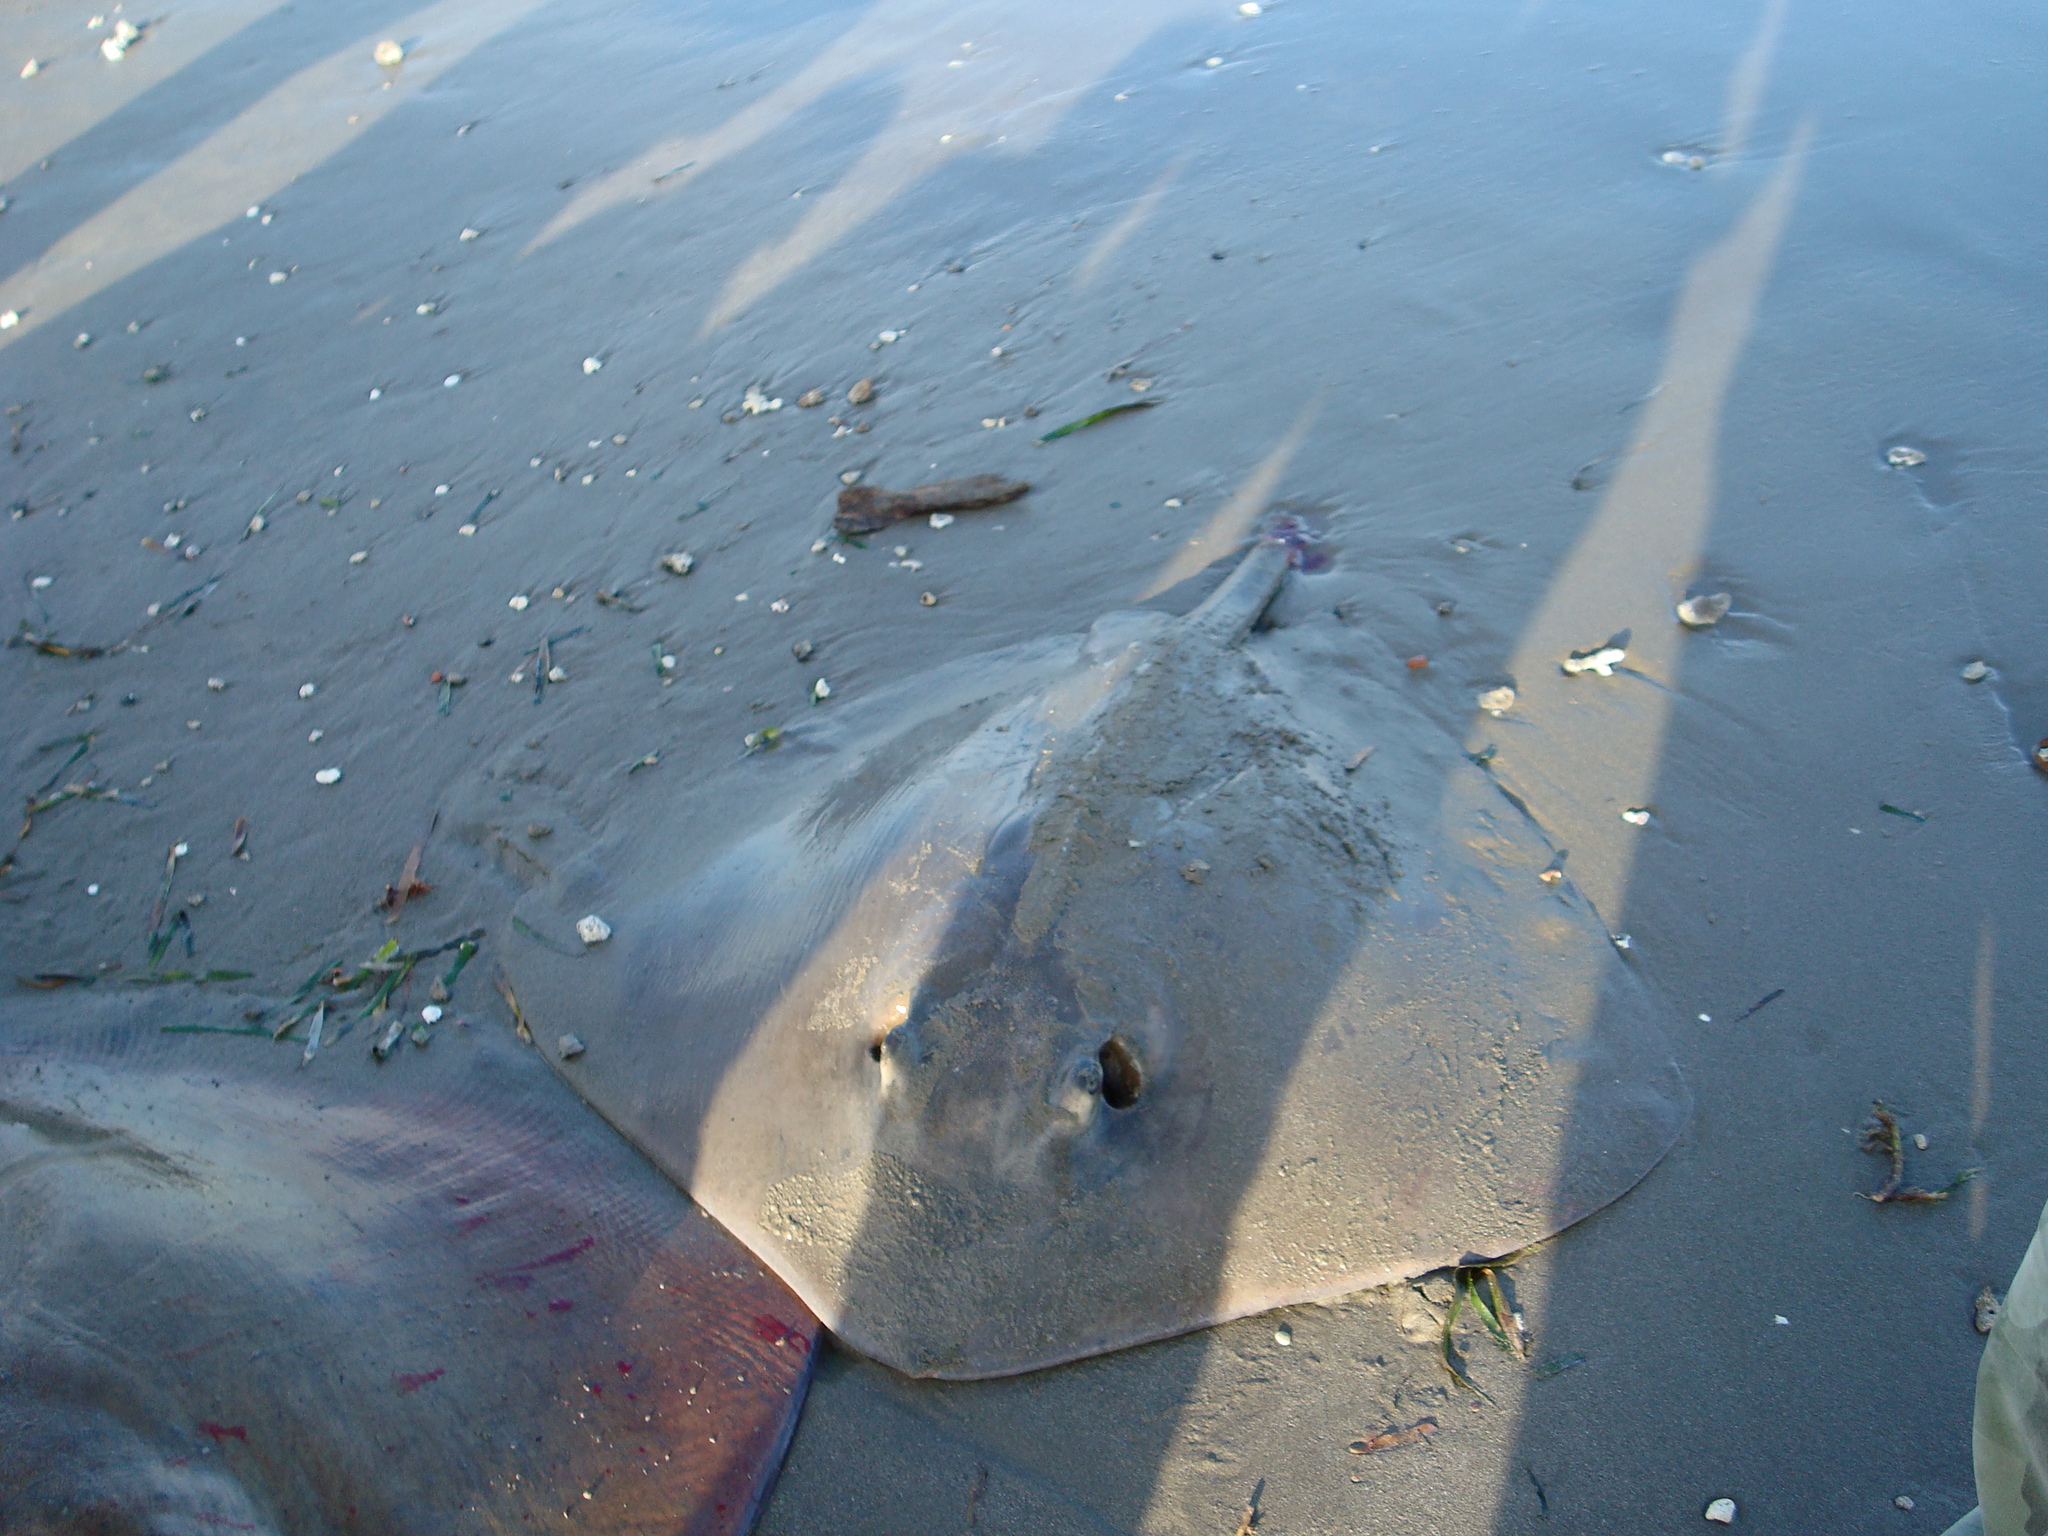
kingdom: Animalia
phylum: Chordata
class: Elasmobranchii
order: Myliobatiformes
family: Dasyatidae
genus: Hypanus
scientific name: Hypanus
